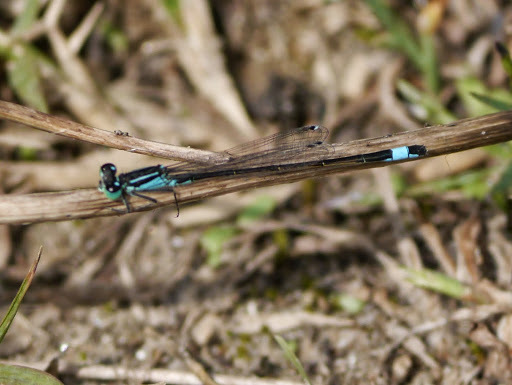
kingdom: Animalia
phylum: Arthropoda
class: Insecta
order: Odonata
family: Coenagrionidae
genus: Ischnura
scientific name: Ischnura elegans
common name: Blue-tailed damselfly
